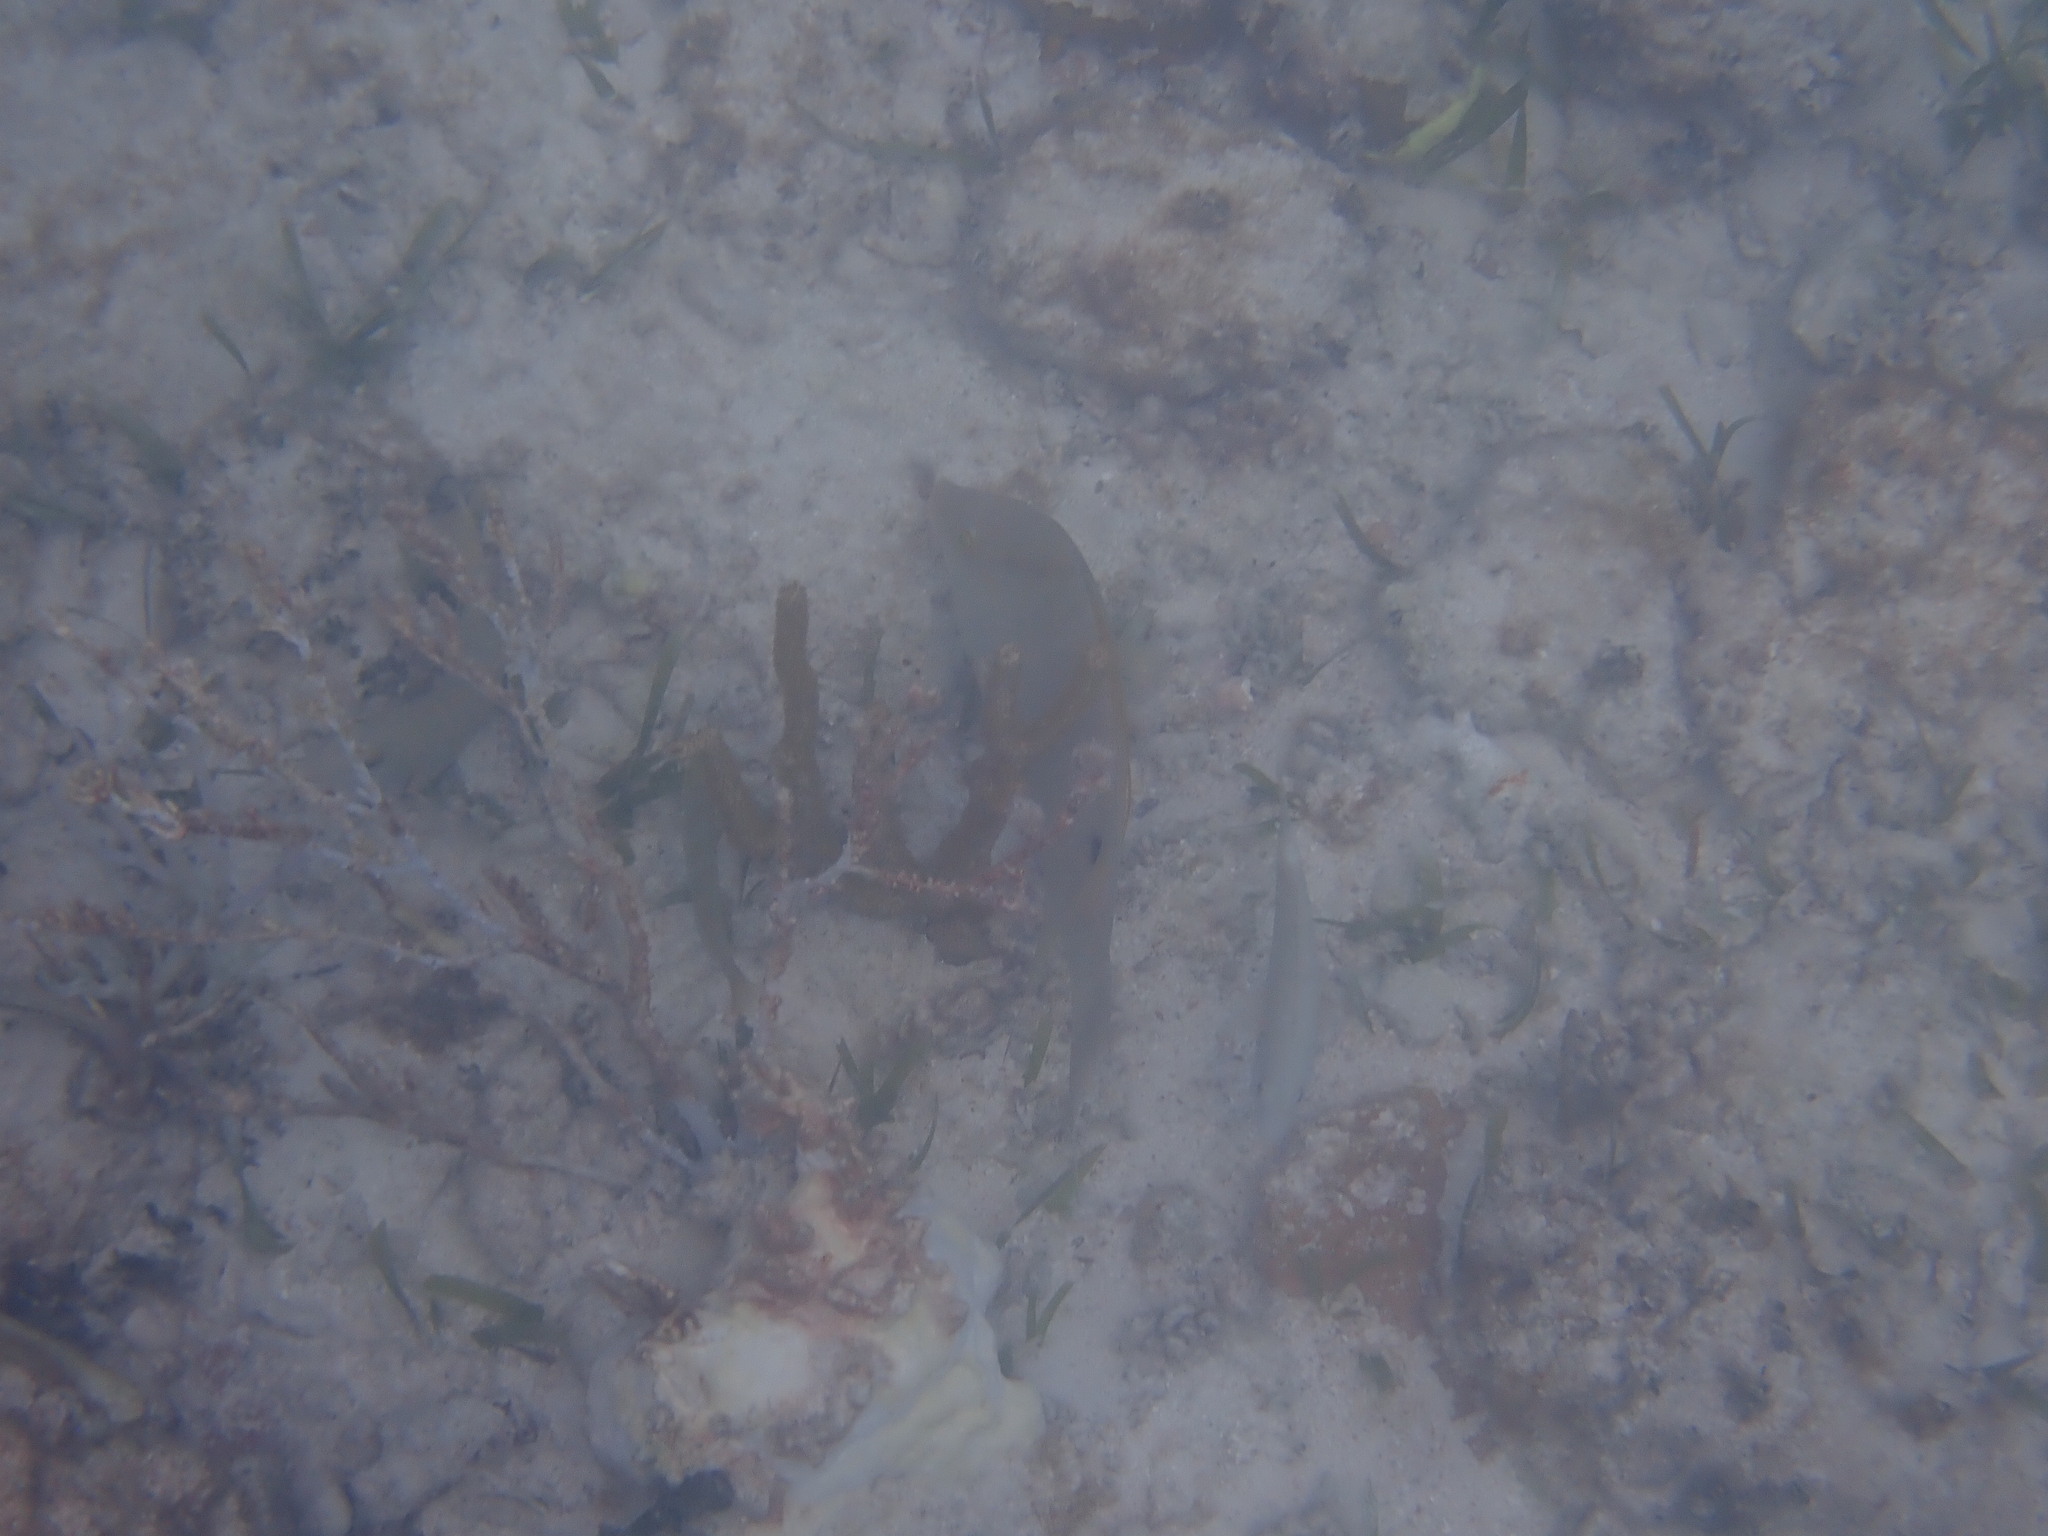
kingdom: Animalia
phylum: Chordata
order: Perciformes
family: Labridae
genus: Lachnolaimus
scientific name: Lachnolaimus maximus
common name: Hogfish
